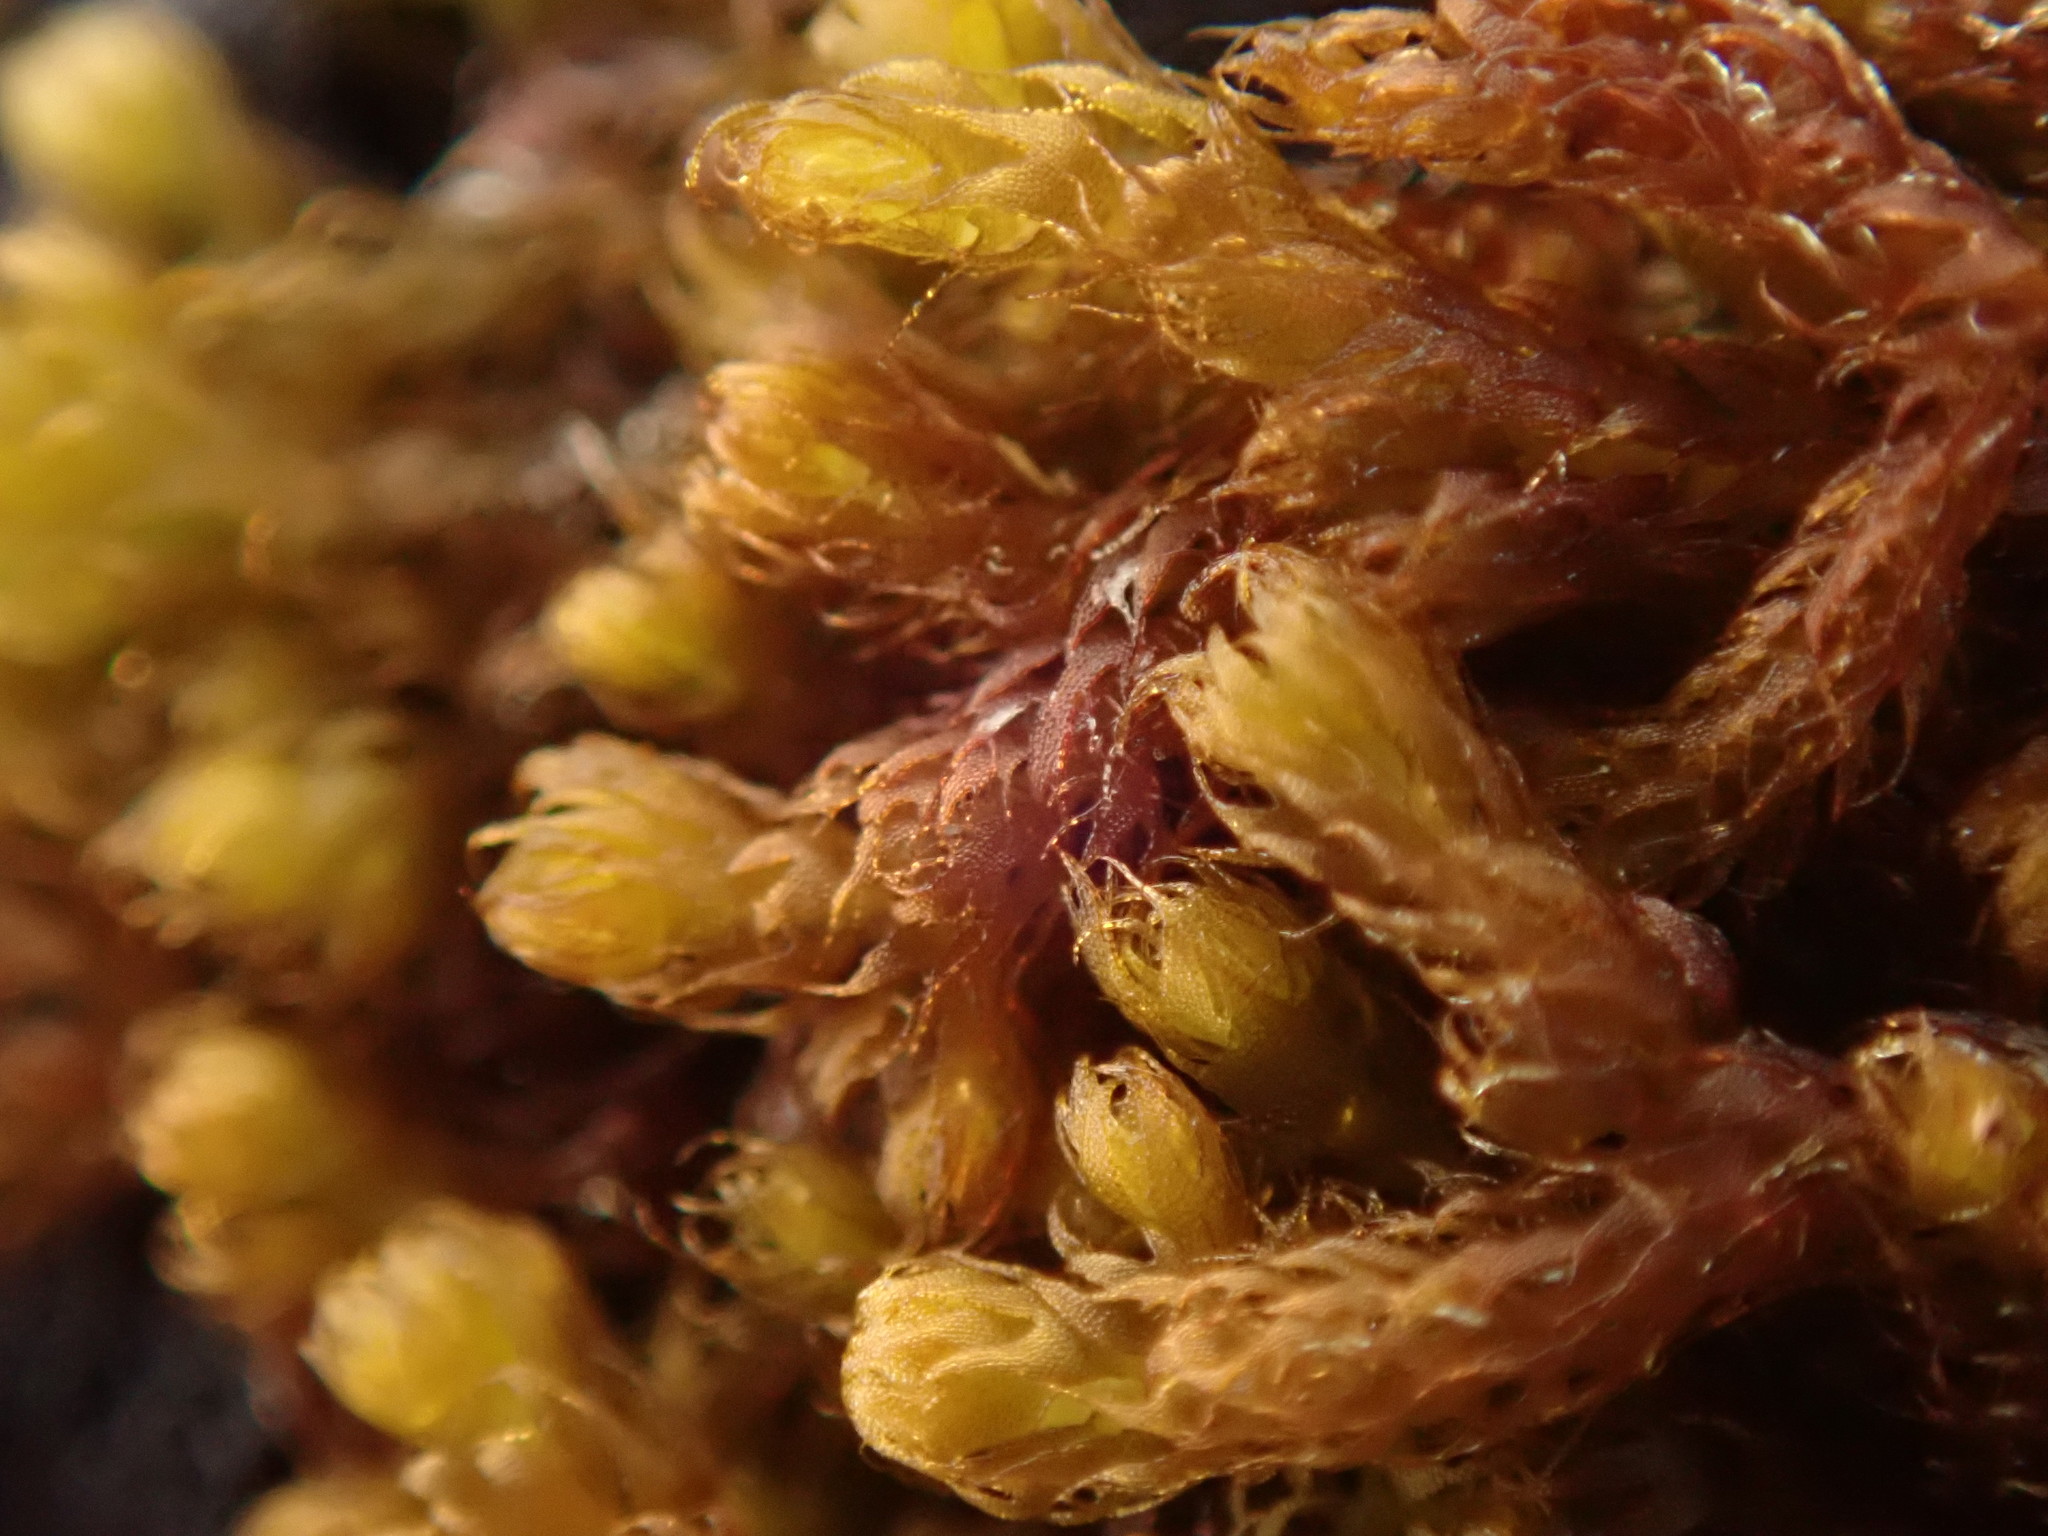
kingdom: Plantae
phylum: Marchantiophyta
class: Jungermanniopsida
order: Ptilidiales
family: Ptilidiaceae
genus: Ptilidium
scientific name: Ptilidium californicum
